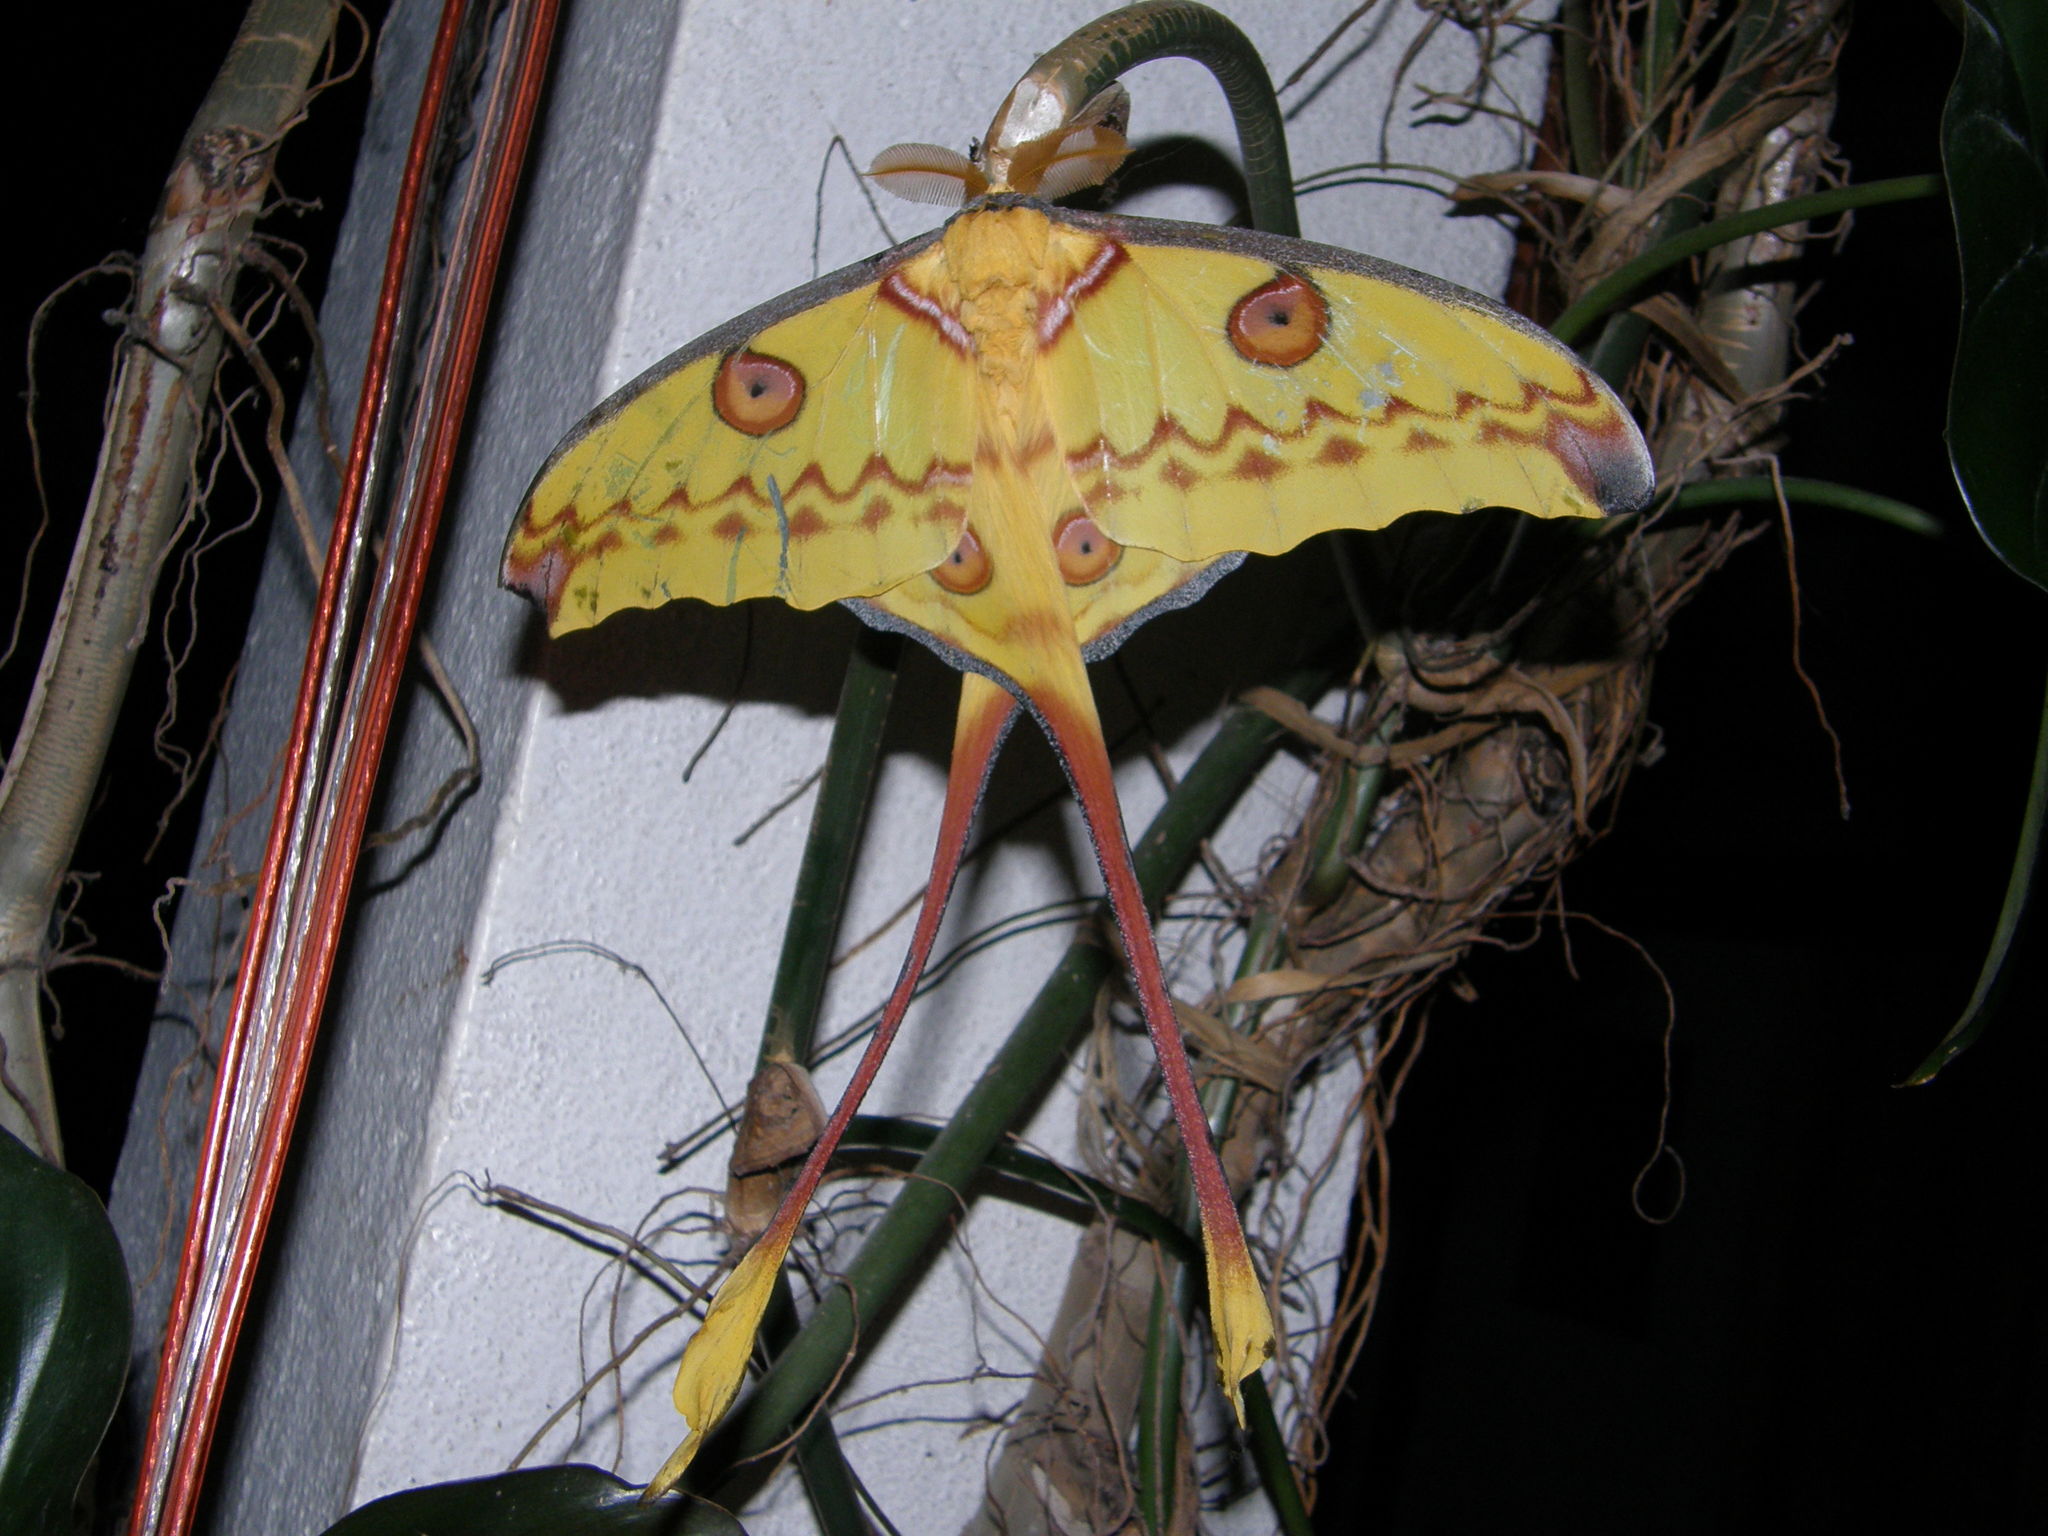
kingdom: Animalia
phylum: Arthropoda
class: Insecta
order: Lepidoptera
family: Saturniidae
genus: Argema
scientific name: Argema mittrei
